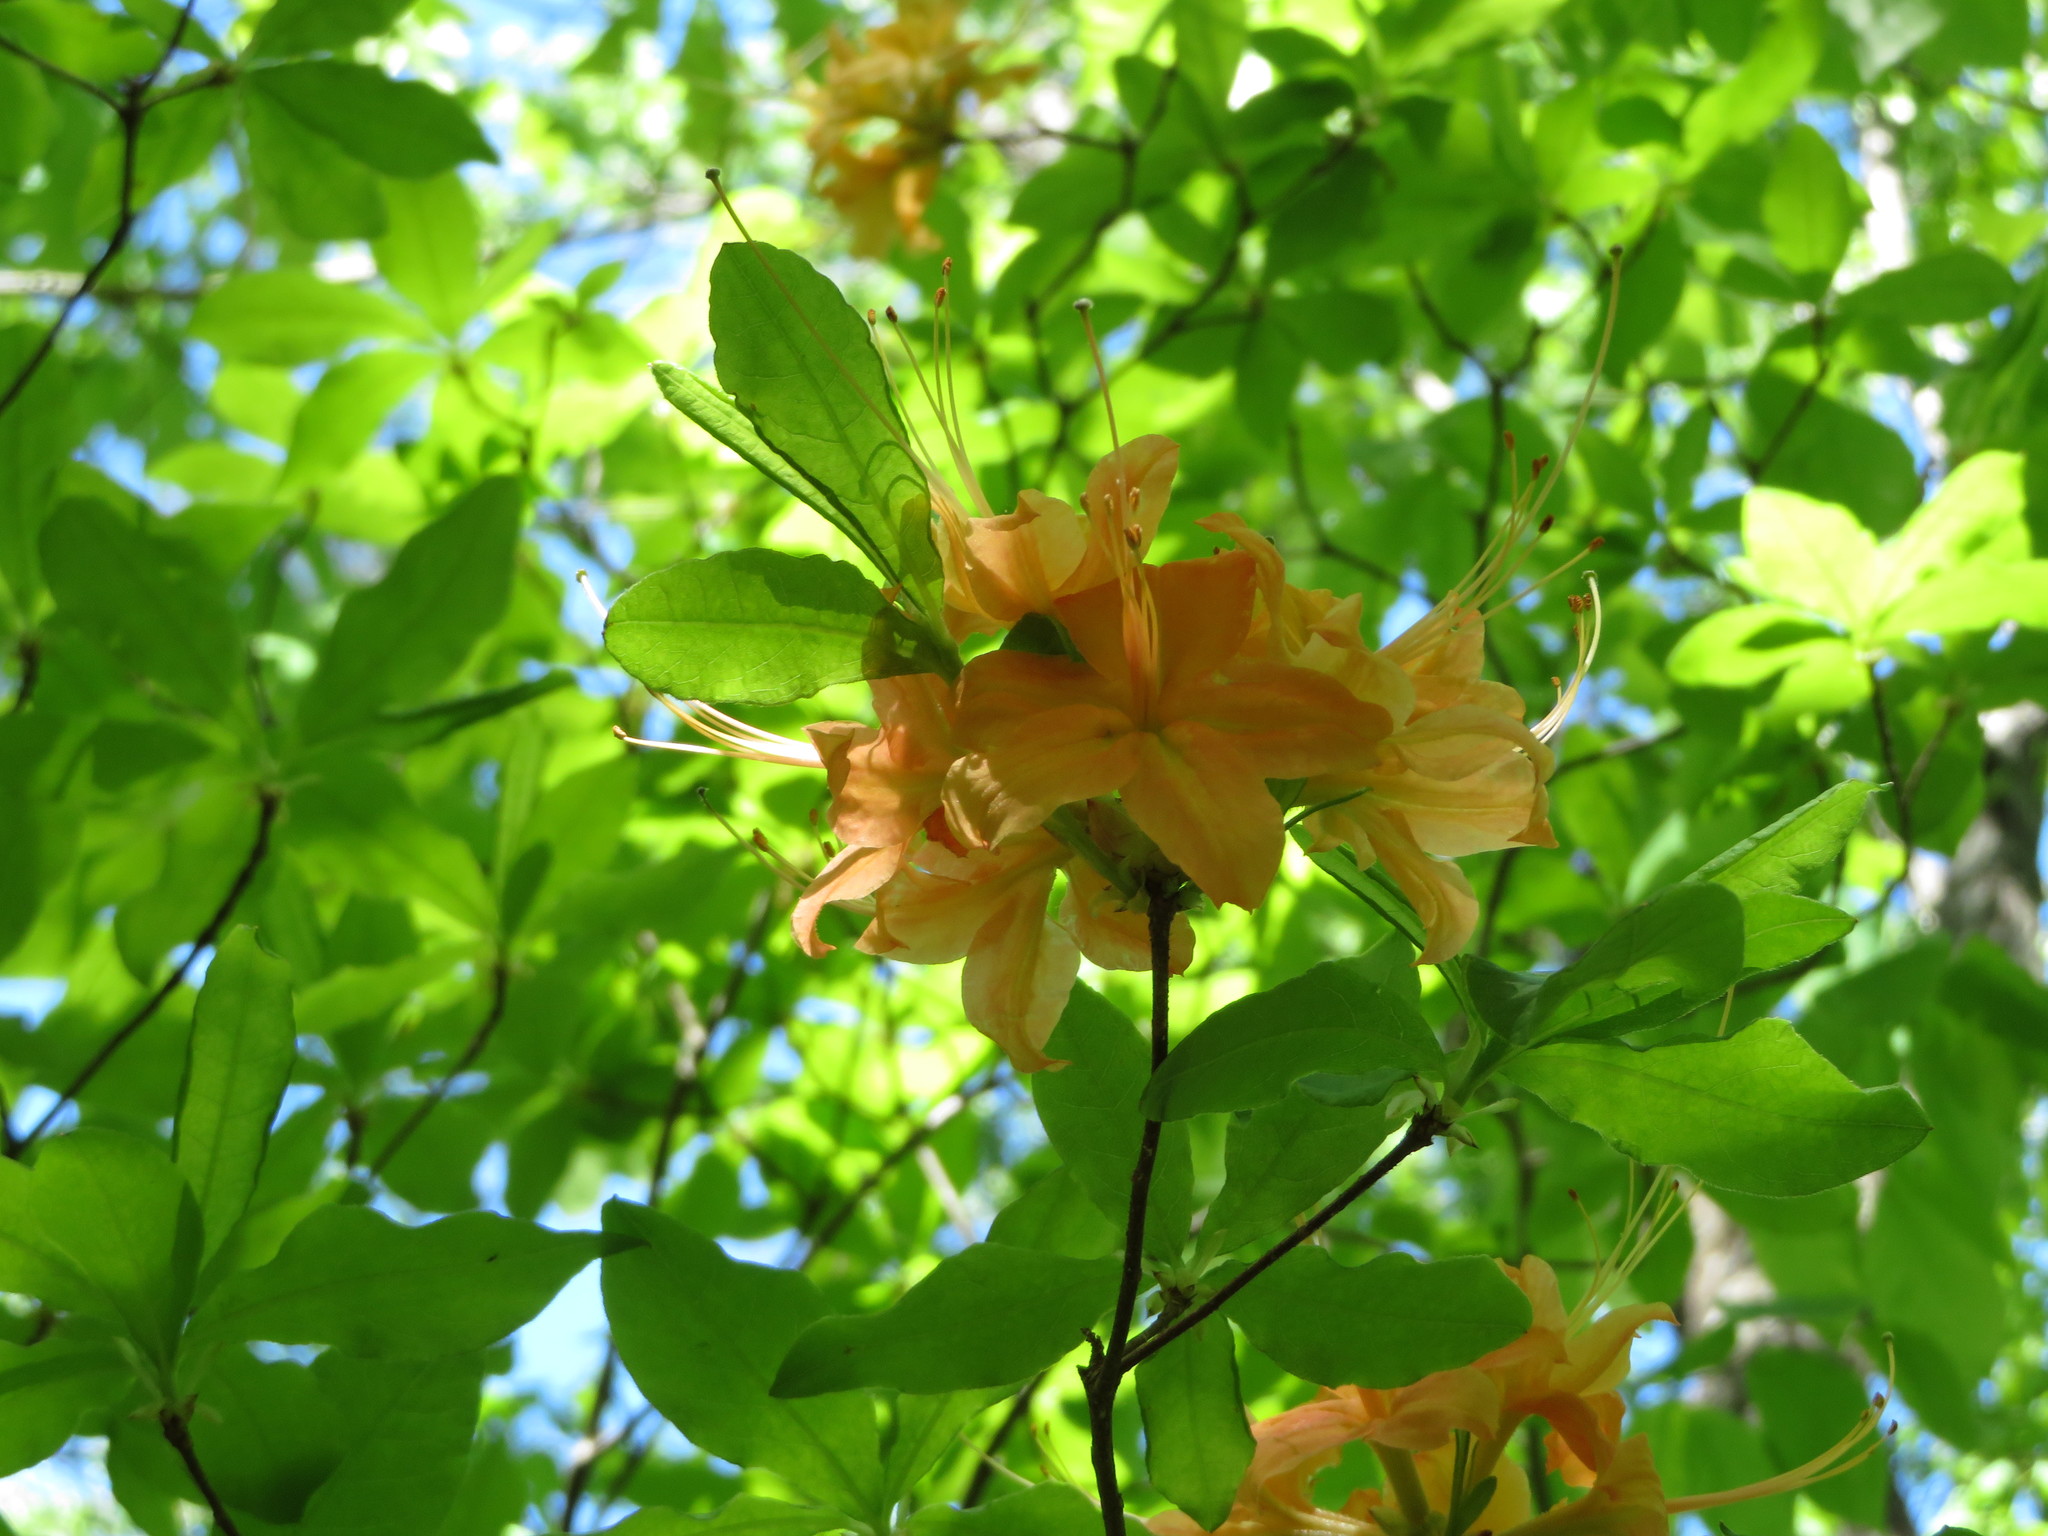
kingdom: Plantae
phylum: Tracheophyta
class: Magnoliopsida
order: Ericales
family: Ericaceae
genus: Rhododendron
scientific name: Rhododendron calendulaceum
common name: Flame azalea
